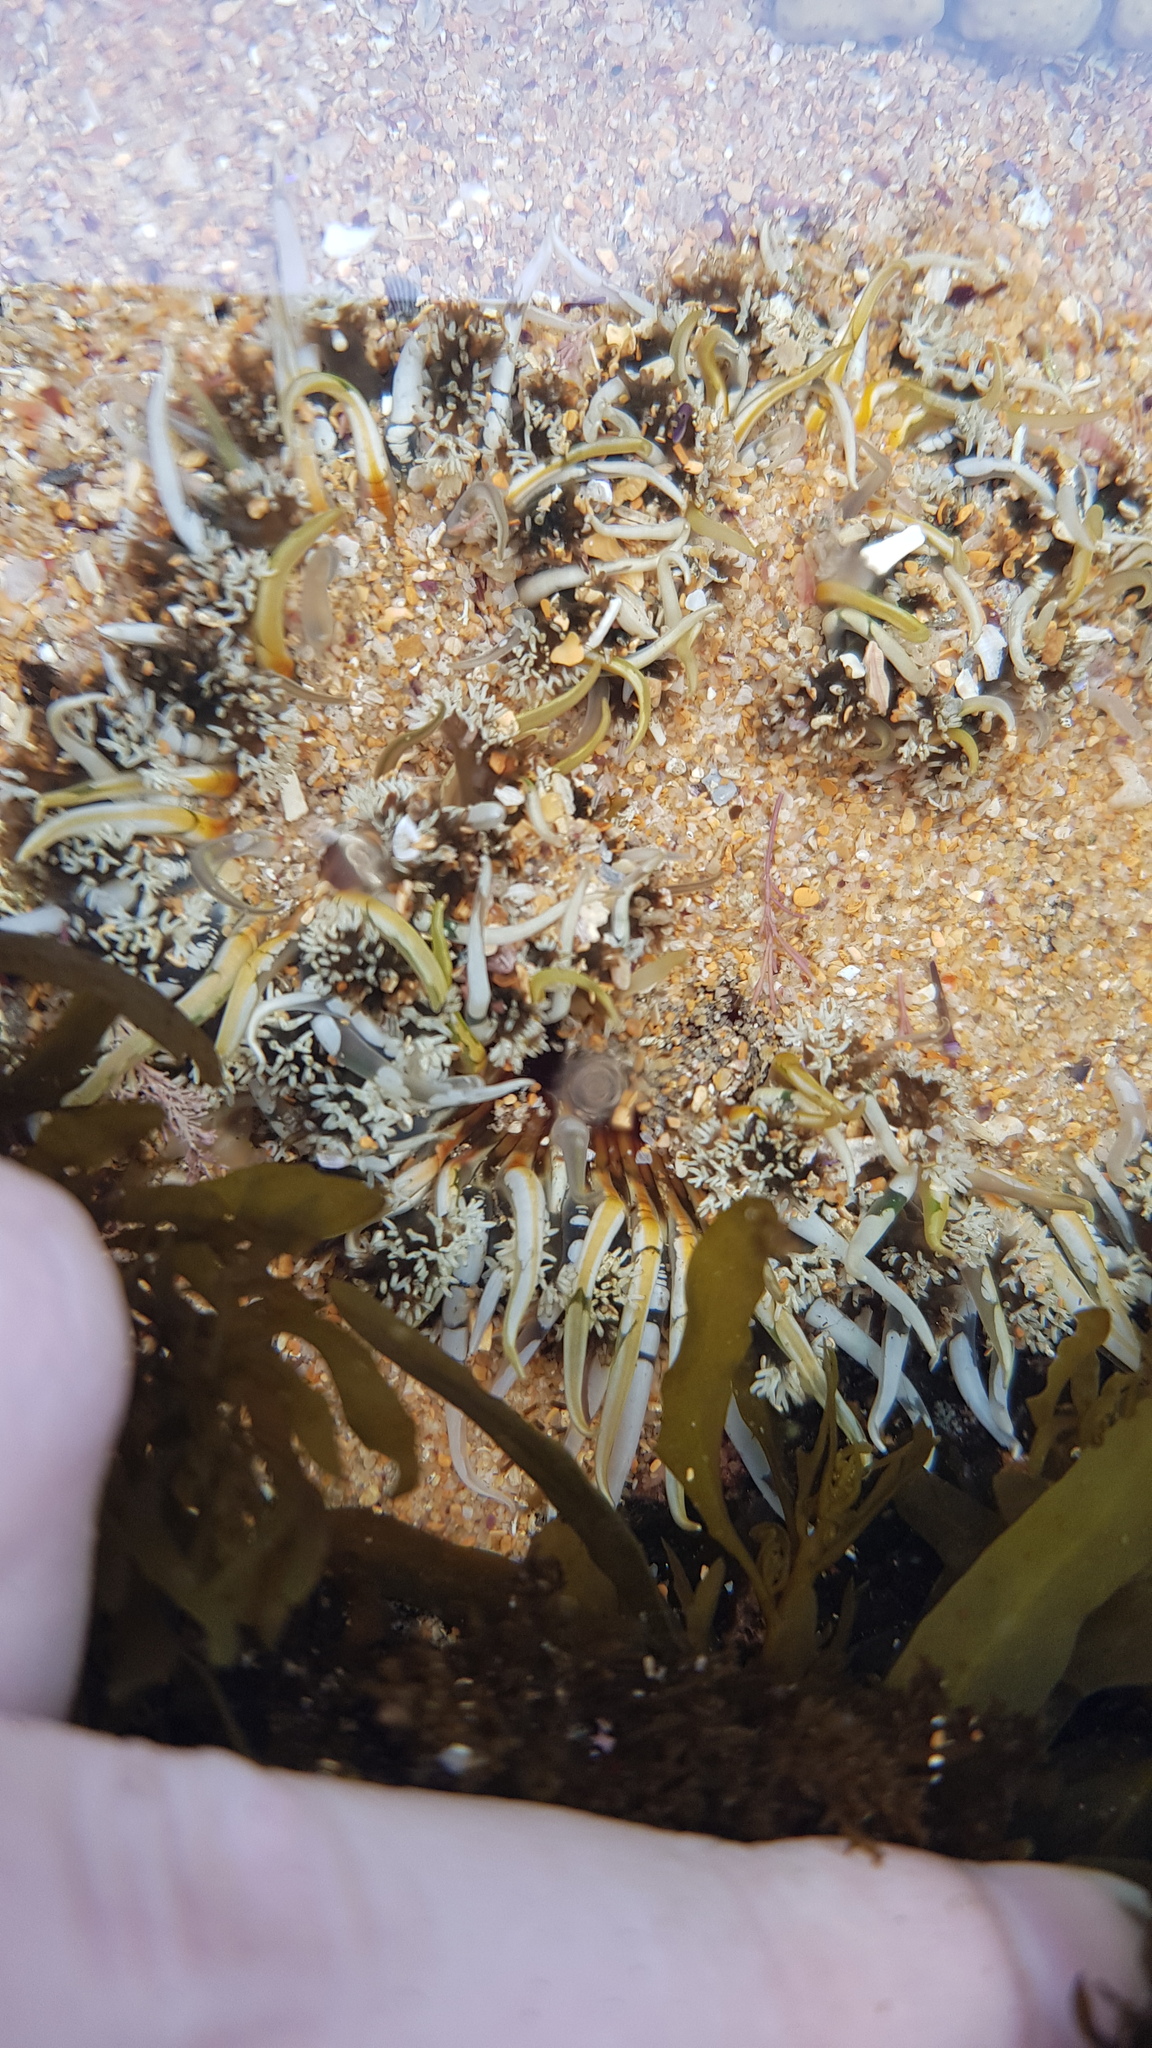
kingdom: Animalia
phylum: Cnidaria
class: Anthozoa
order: Actiniaria
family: Actiniidae
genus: Oulactis
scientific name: Oulactis muscosa
